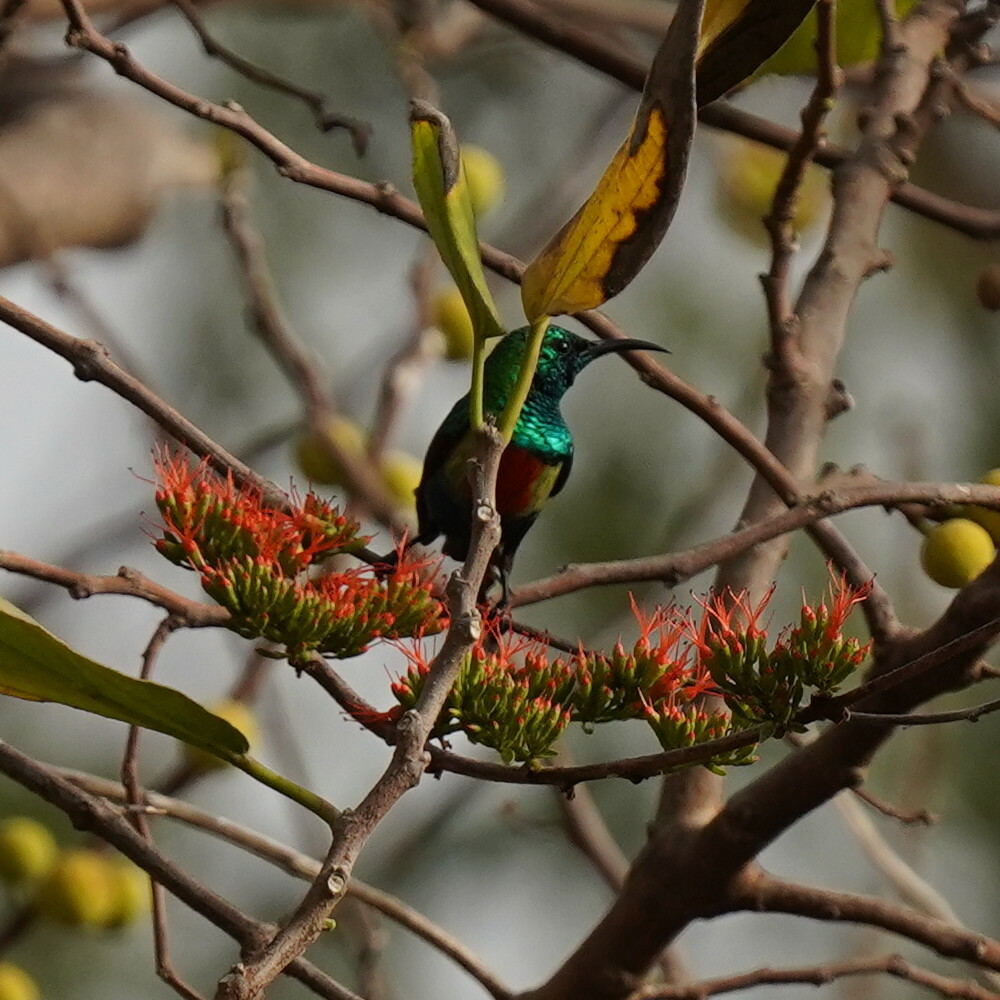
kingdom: Animalia
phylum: Chordata
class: Aves
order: Passeriformes
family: Nectariniidae
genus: Cinnyris
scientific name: Cinnyris pulchellus
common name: Beautiful sunbird
